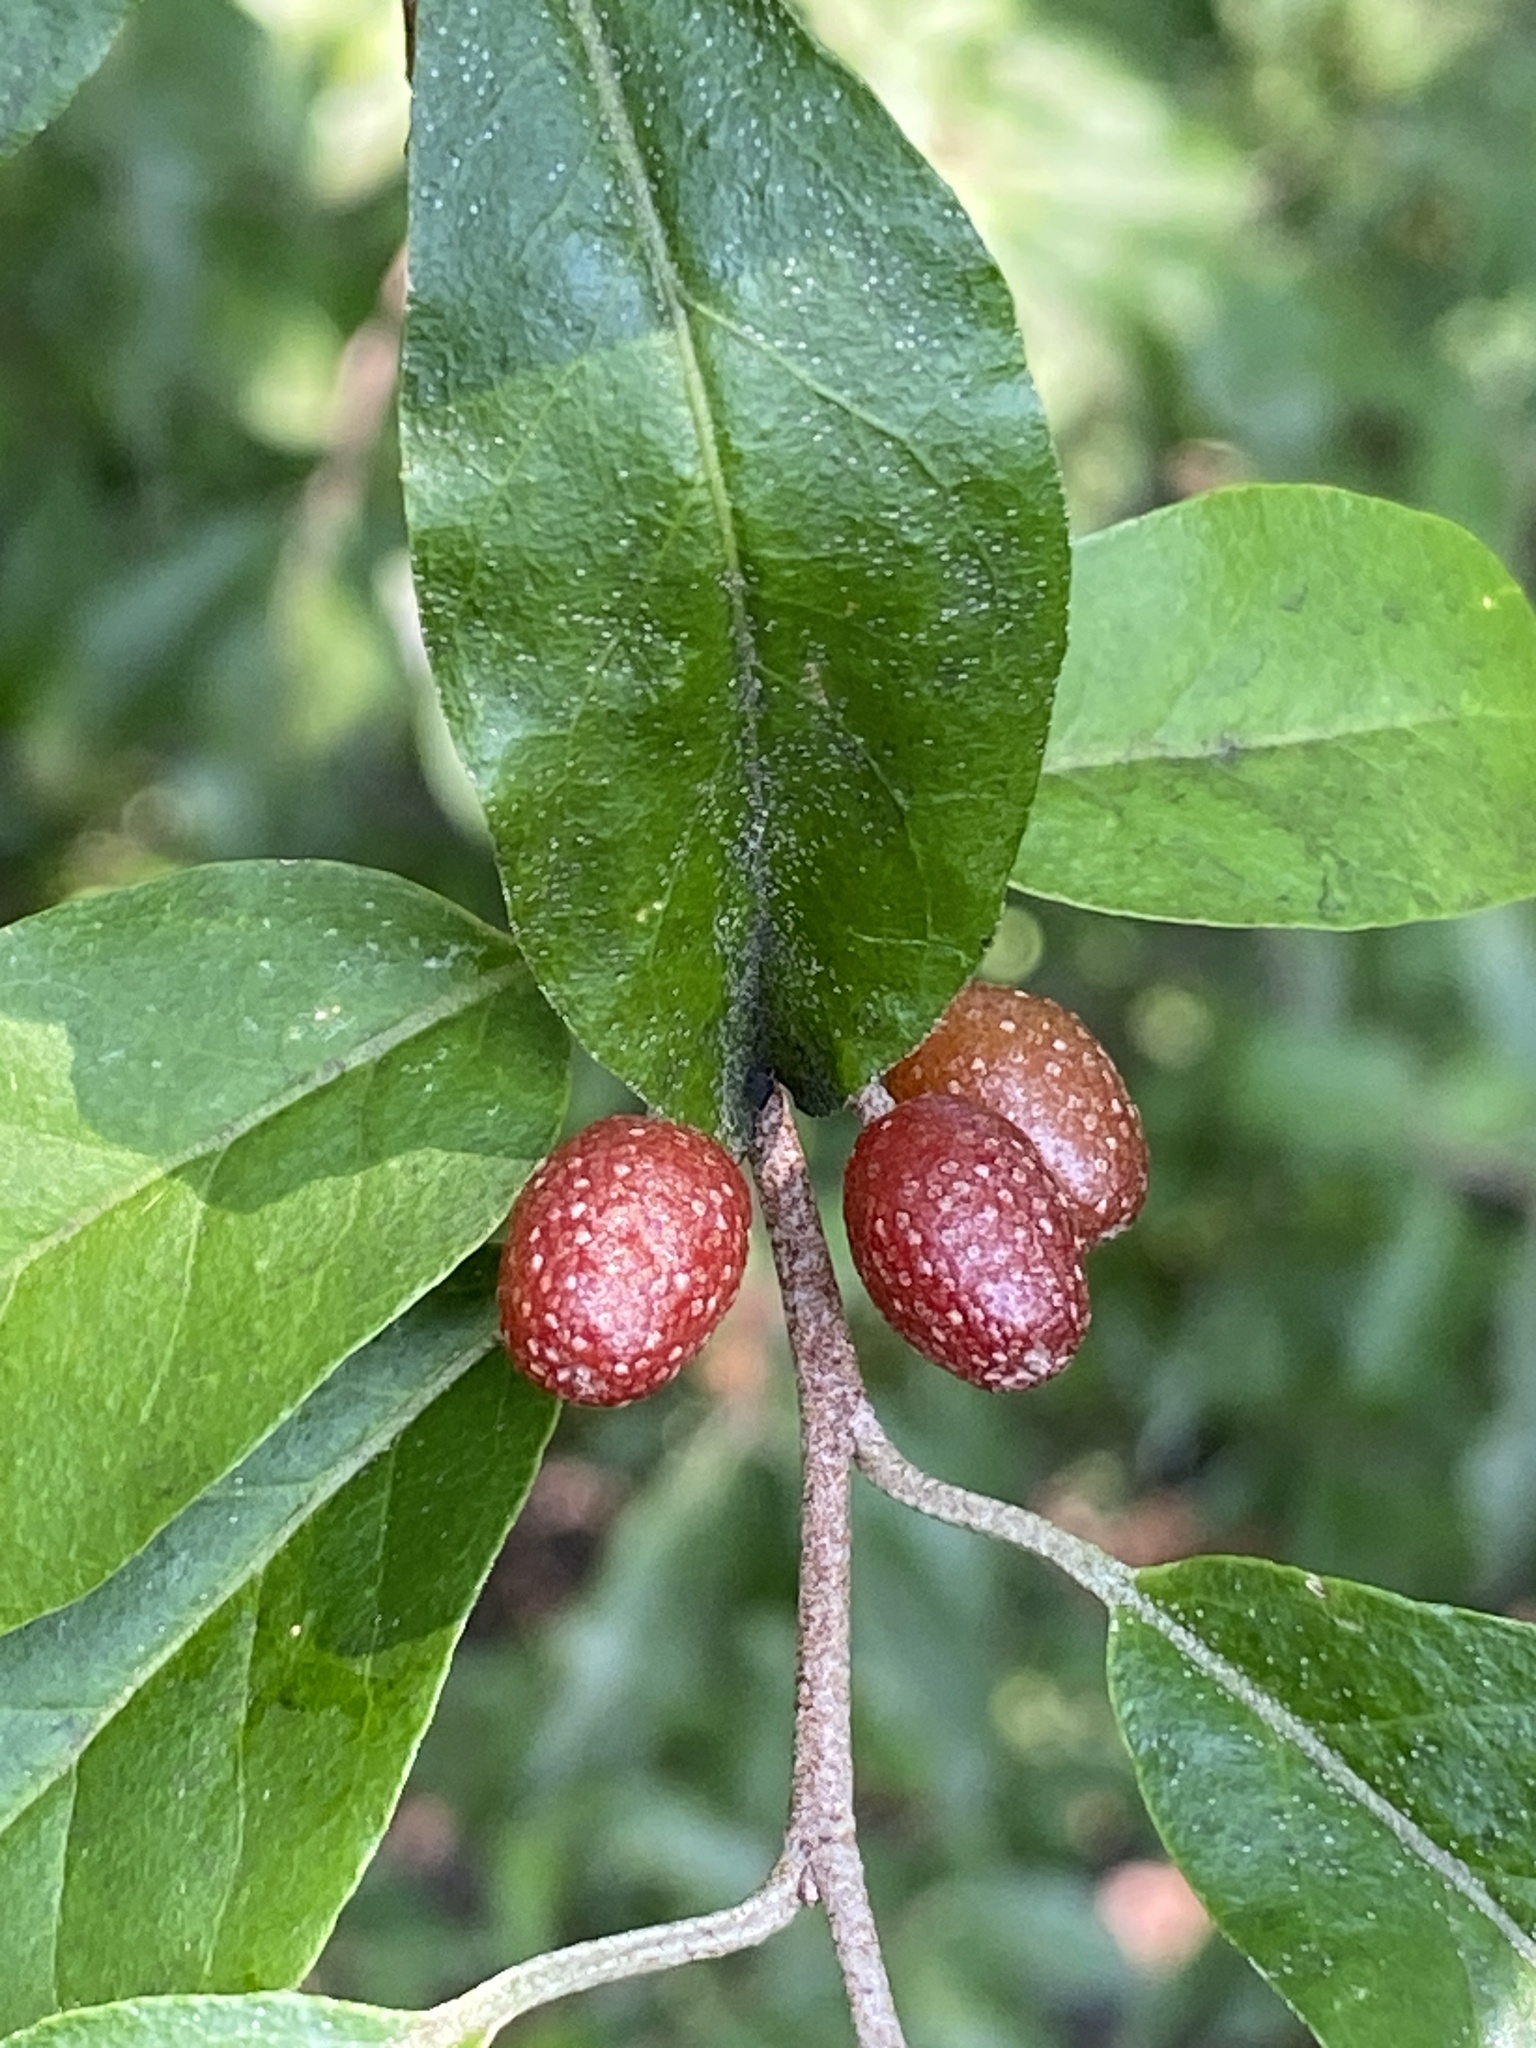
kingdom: Plantae
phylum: Tracheophyta
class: Magnoliopsida
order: Rosales
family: Elaeagnaceae
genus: Elaeagnus
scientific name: Elaeagnus umbellata
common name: Autumn olive
